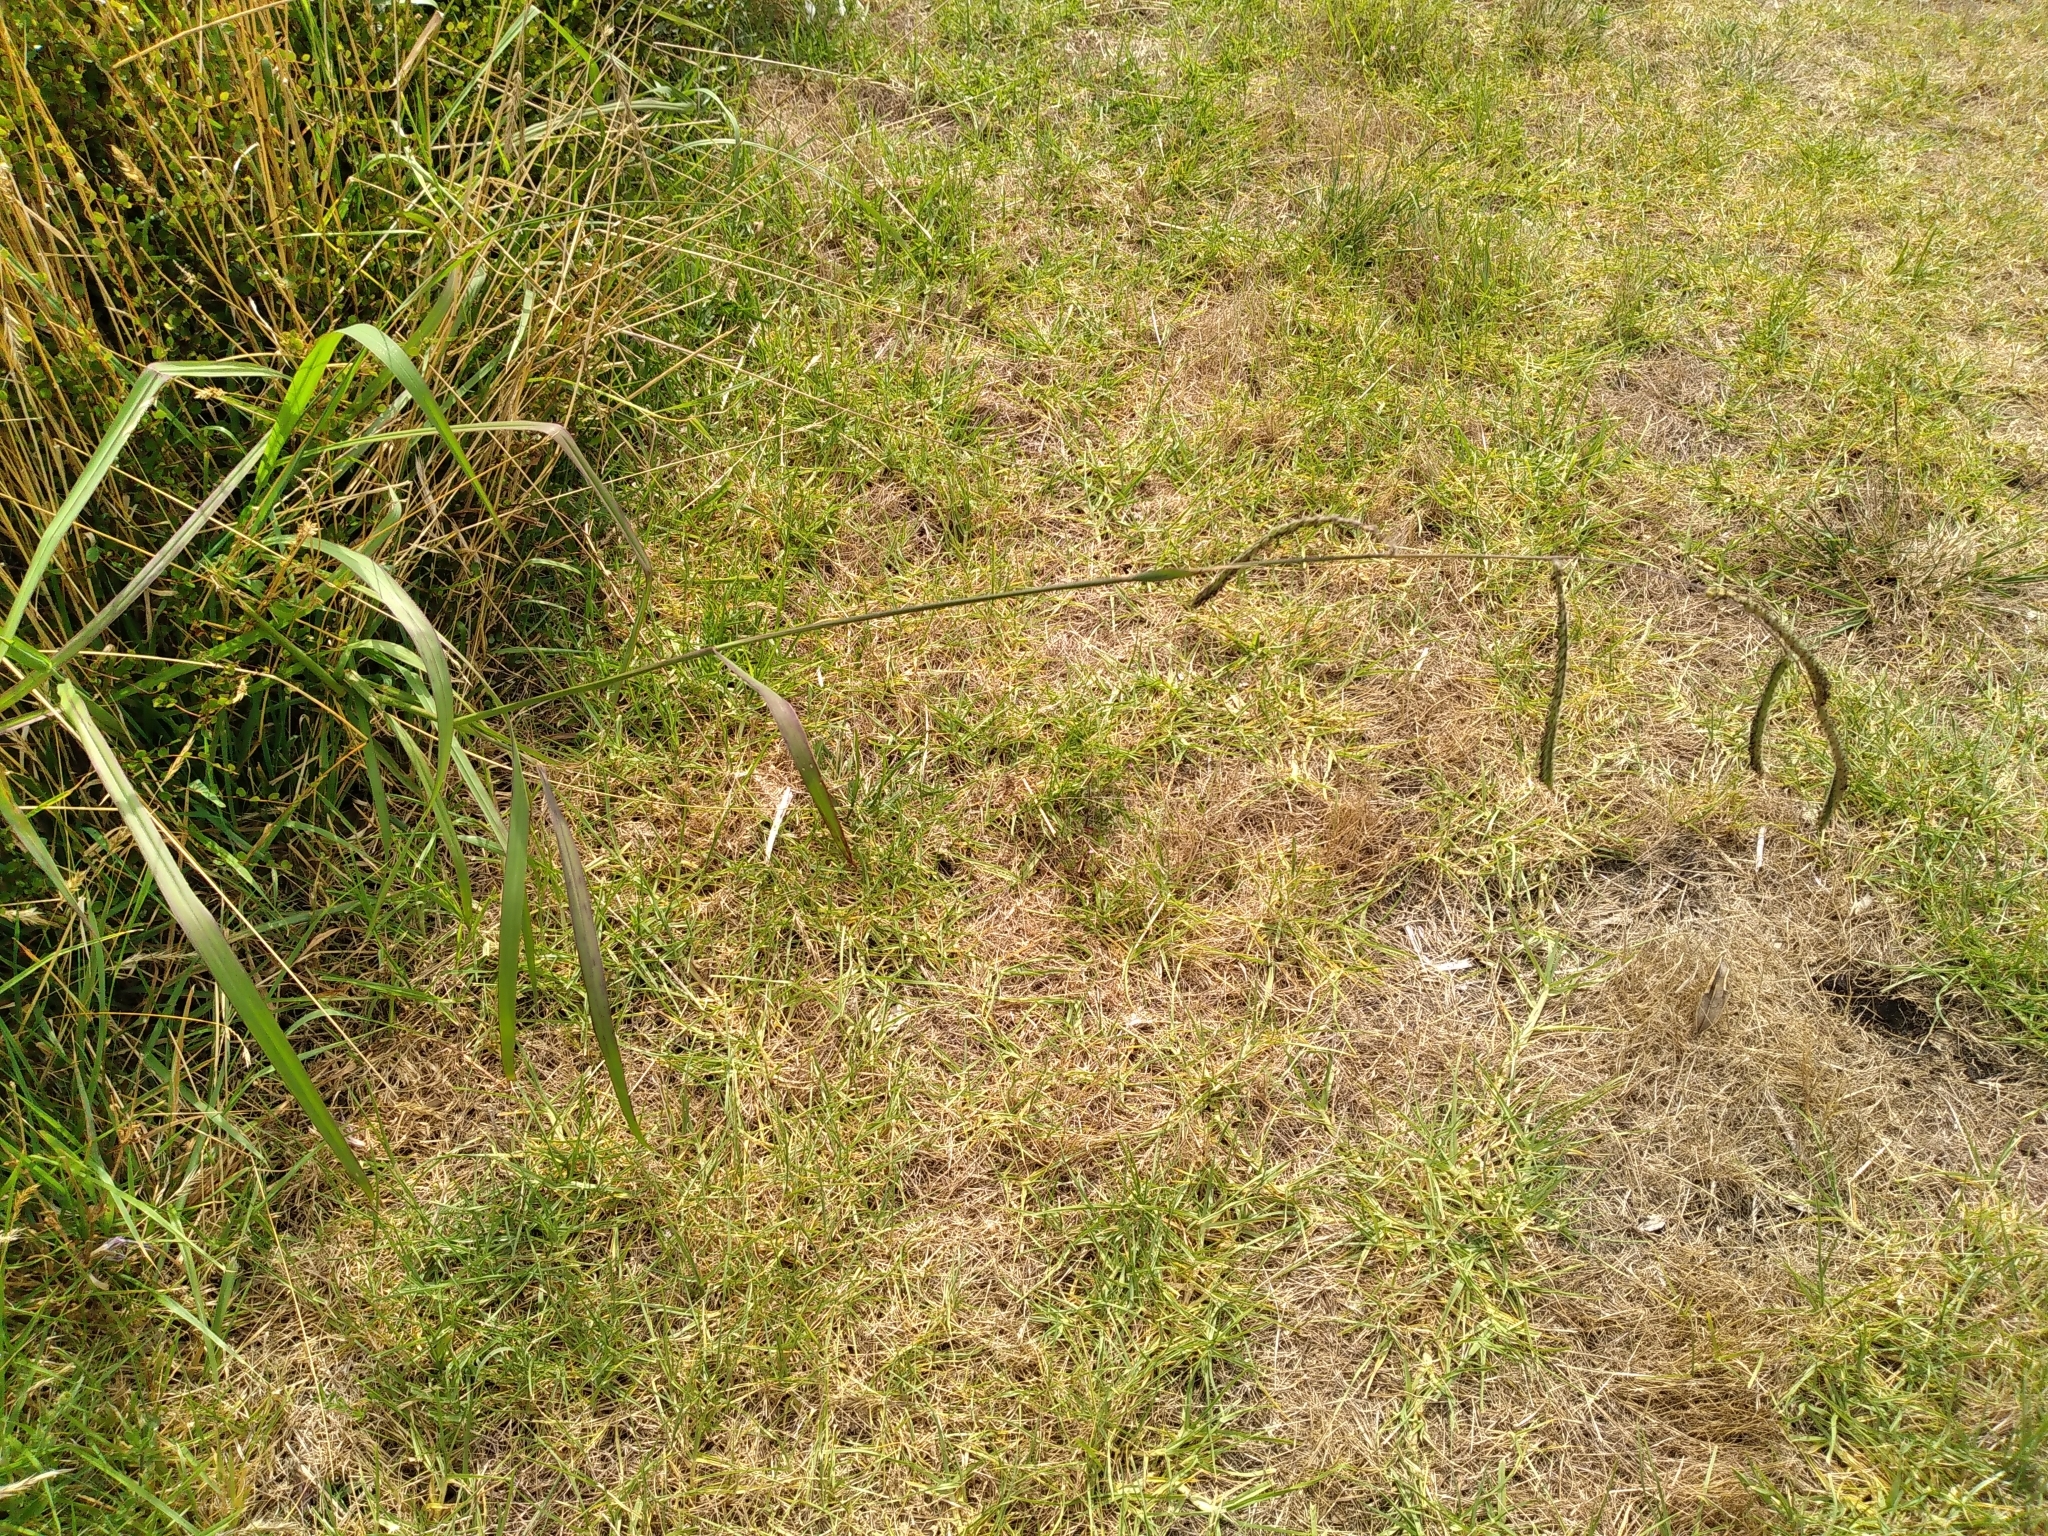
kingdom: Plantae
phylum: Tracheophyta
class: Liliopsida
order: Poales
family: Poaceae
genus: Paspalum
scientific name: Paspalum dilatatum
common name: Dallisgrass
